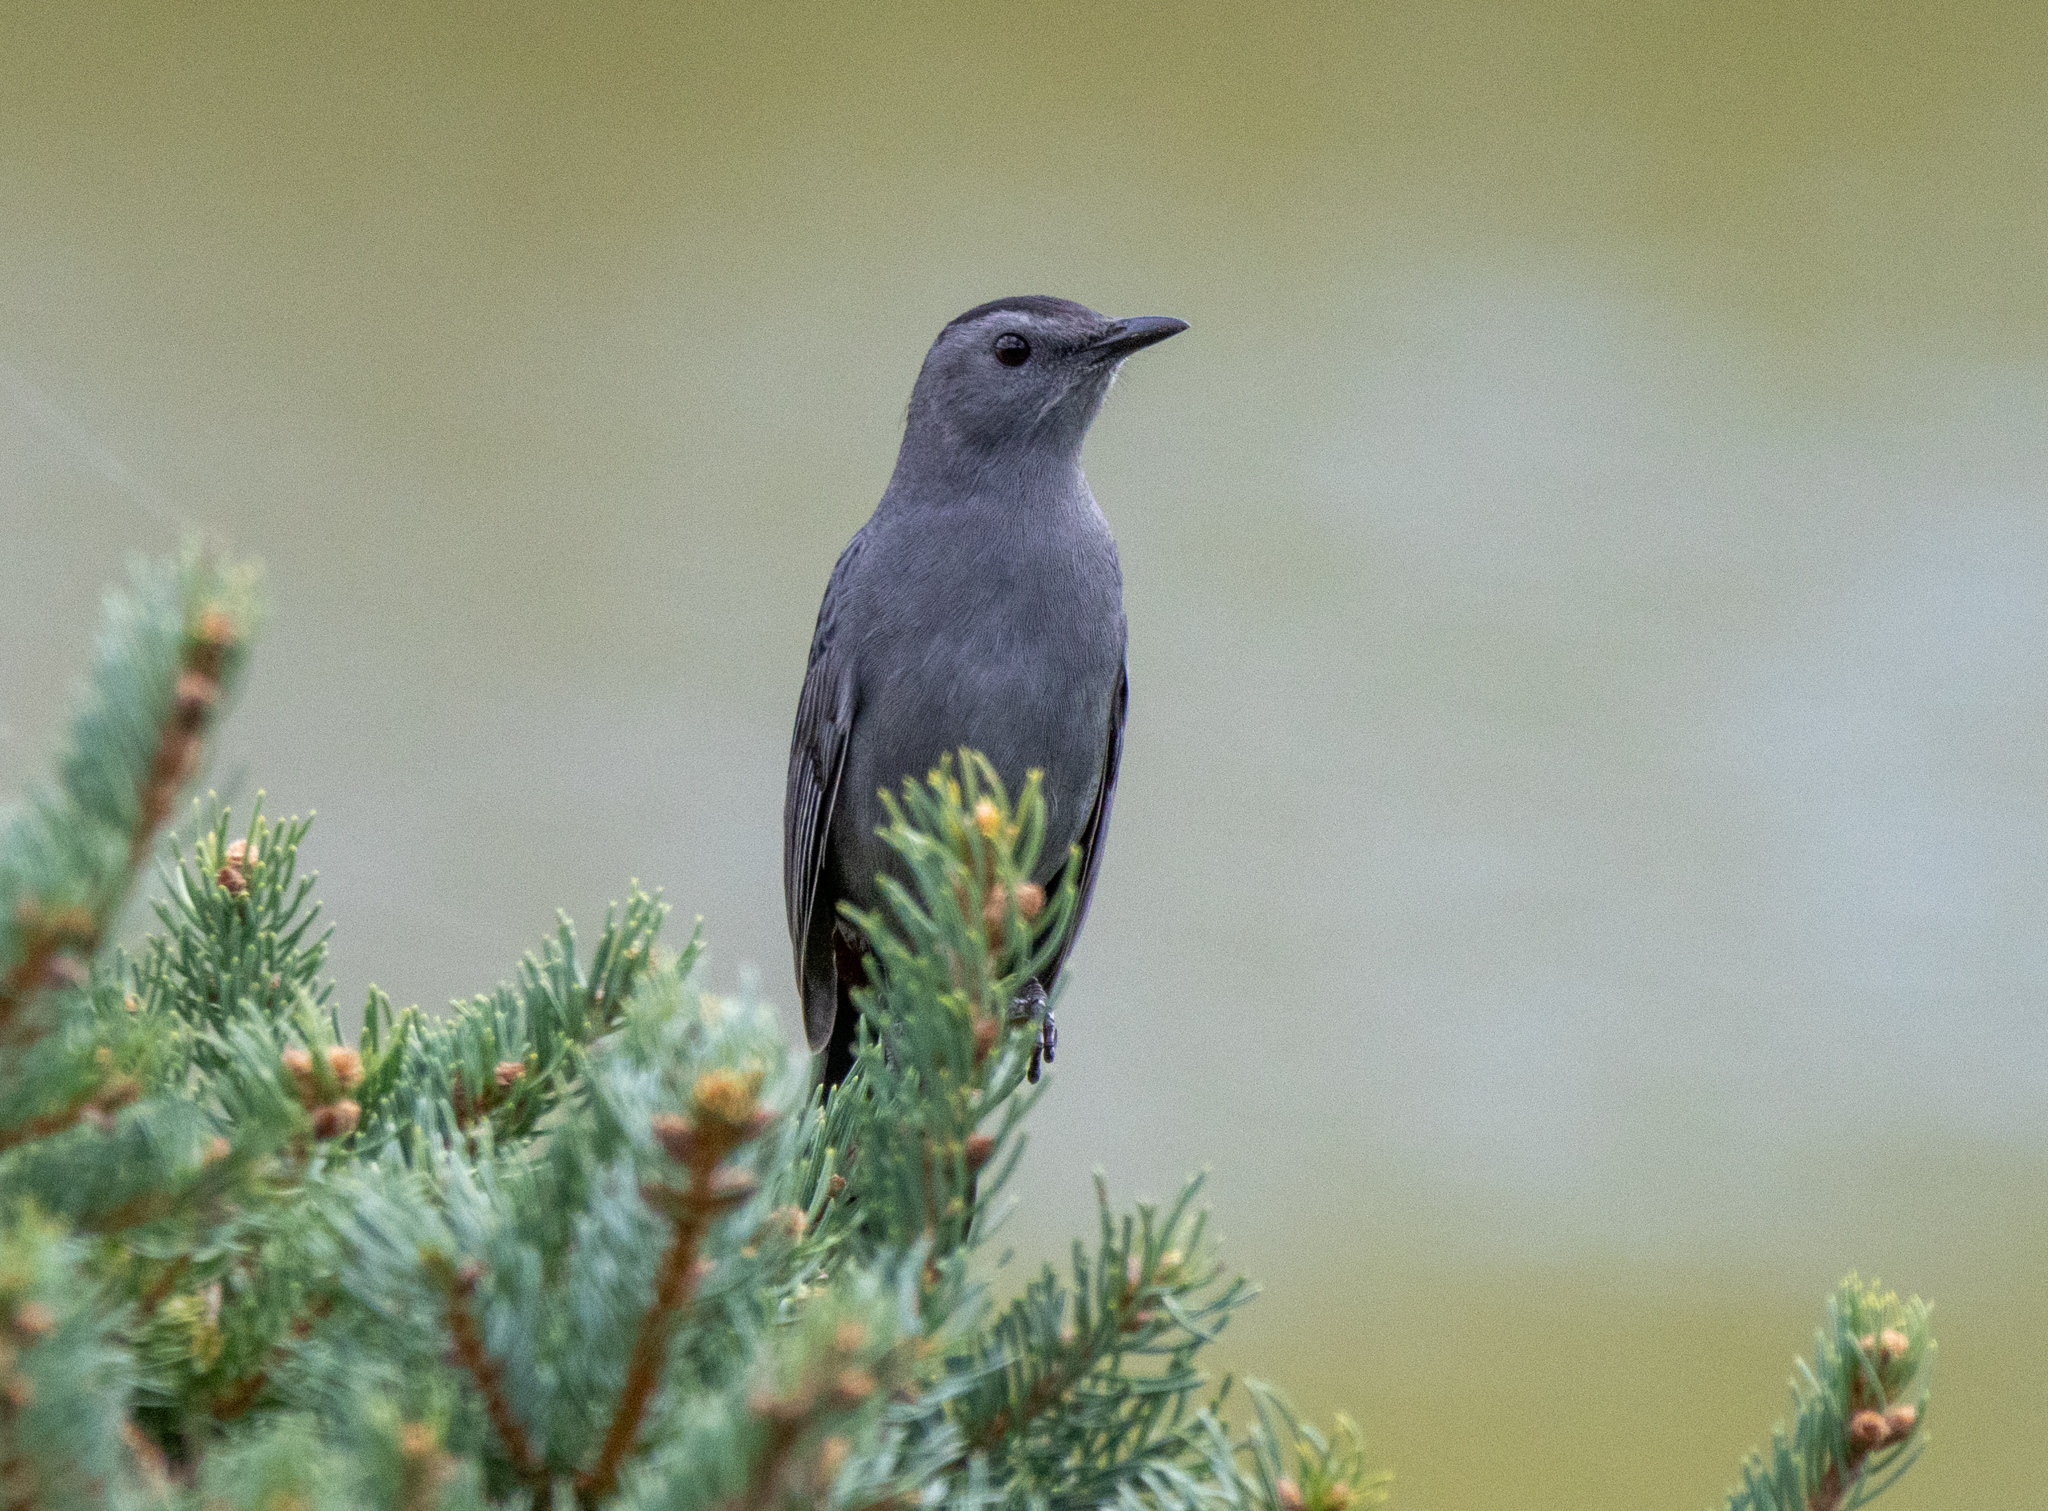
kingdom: Animalia
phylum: Chordata
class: Aves
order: Passeriformes
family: Mimidae
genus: Dumetella
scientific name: Dumetella carolinensis
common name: Gray catbird
